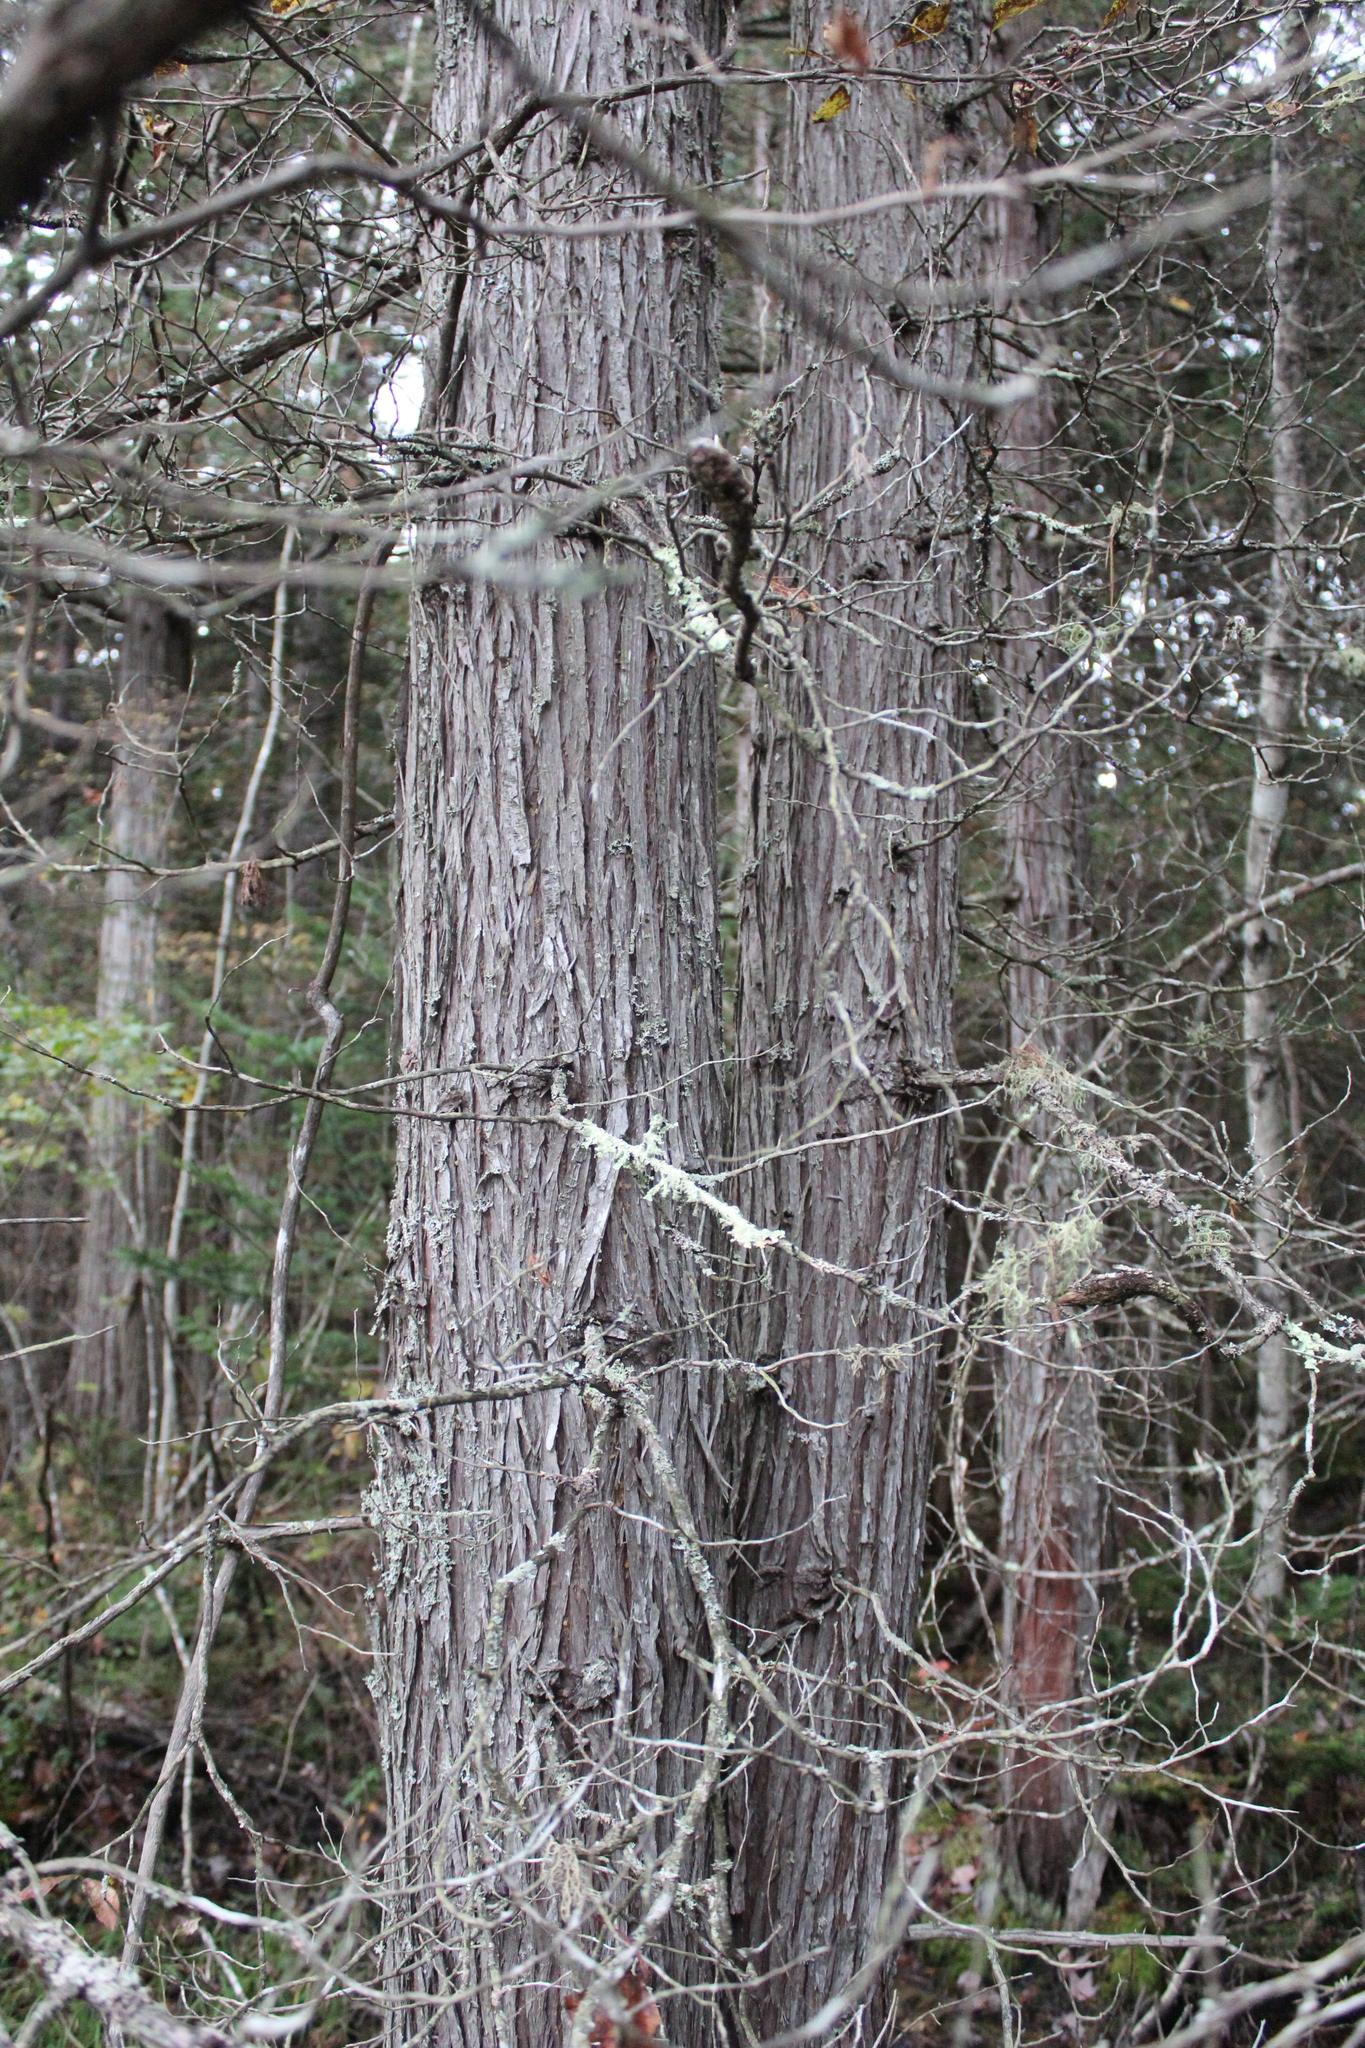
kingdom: Plantae
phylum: Tracheophyta
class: Pinopsida
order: Pinales
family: Cupressaceae
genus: Chamaecyparis
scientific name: Chamaecyparis thyoides
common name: Atlantic white cedar
